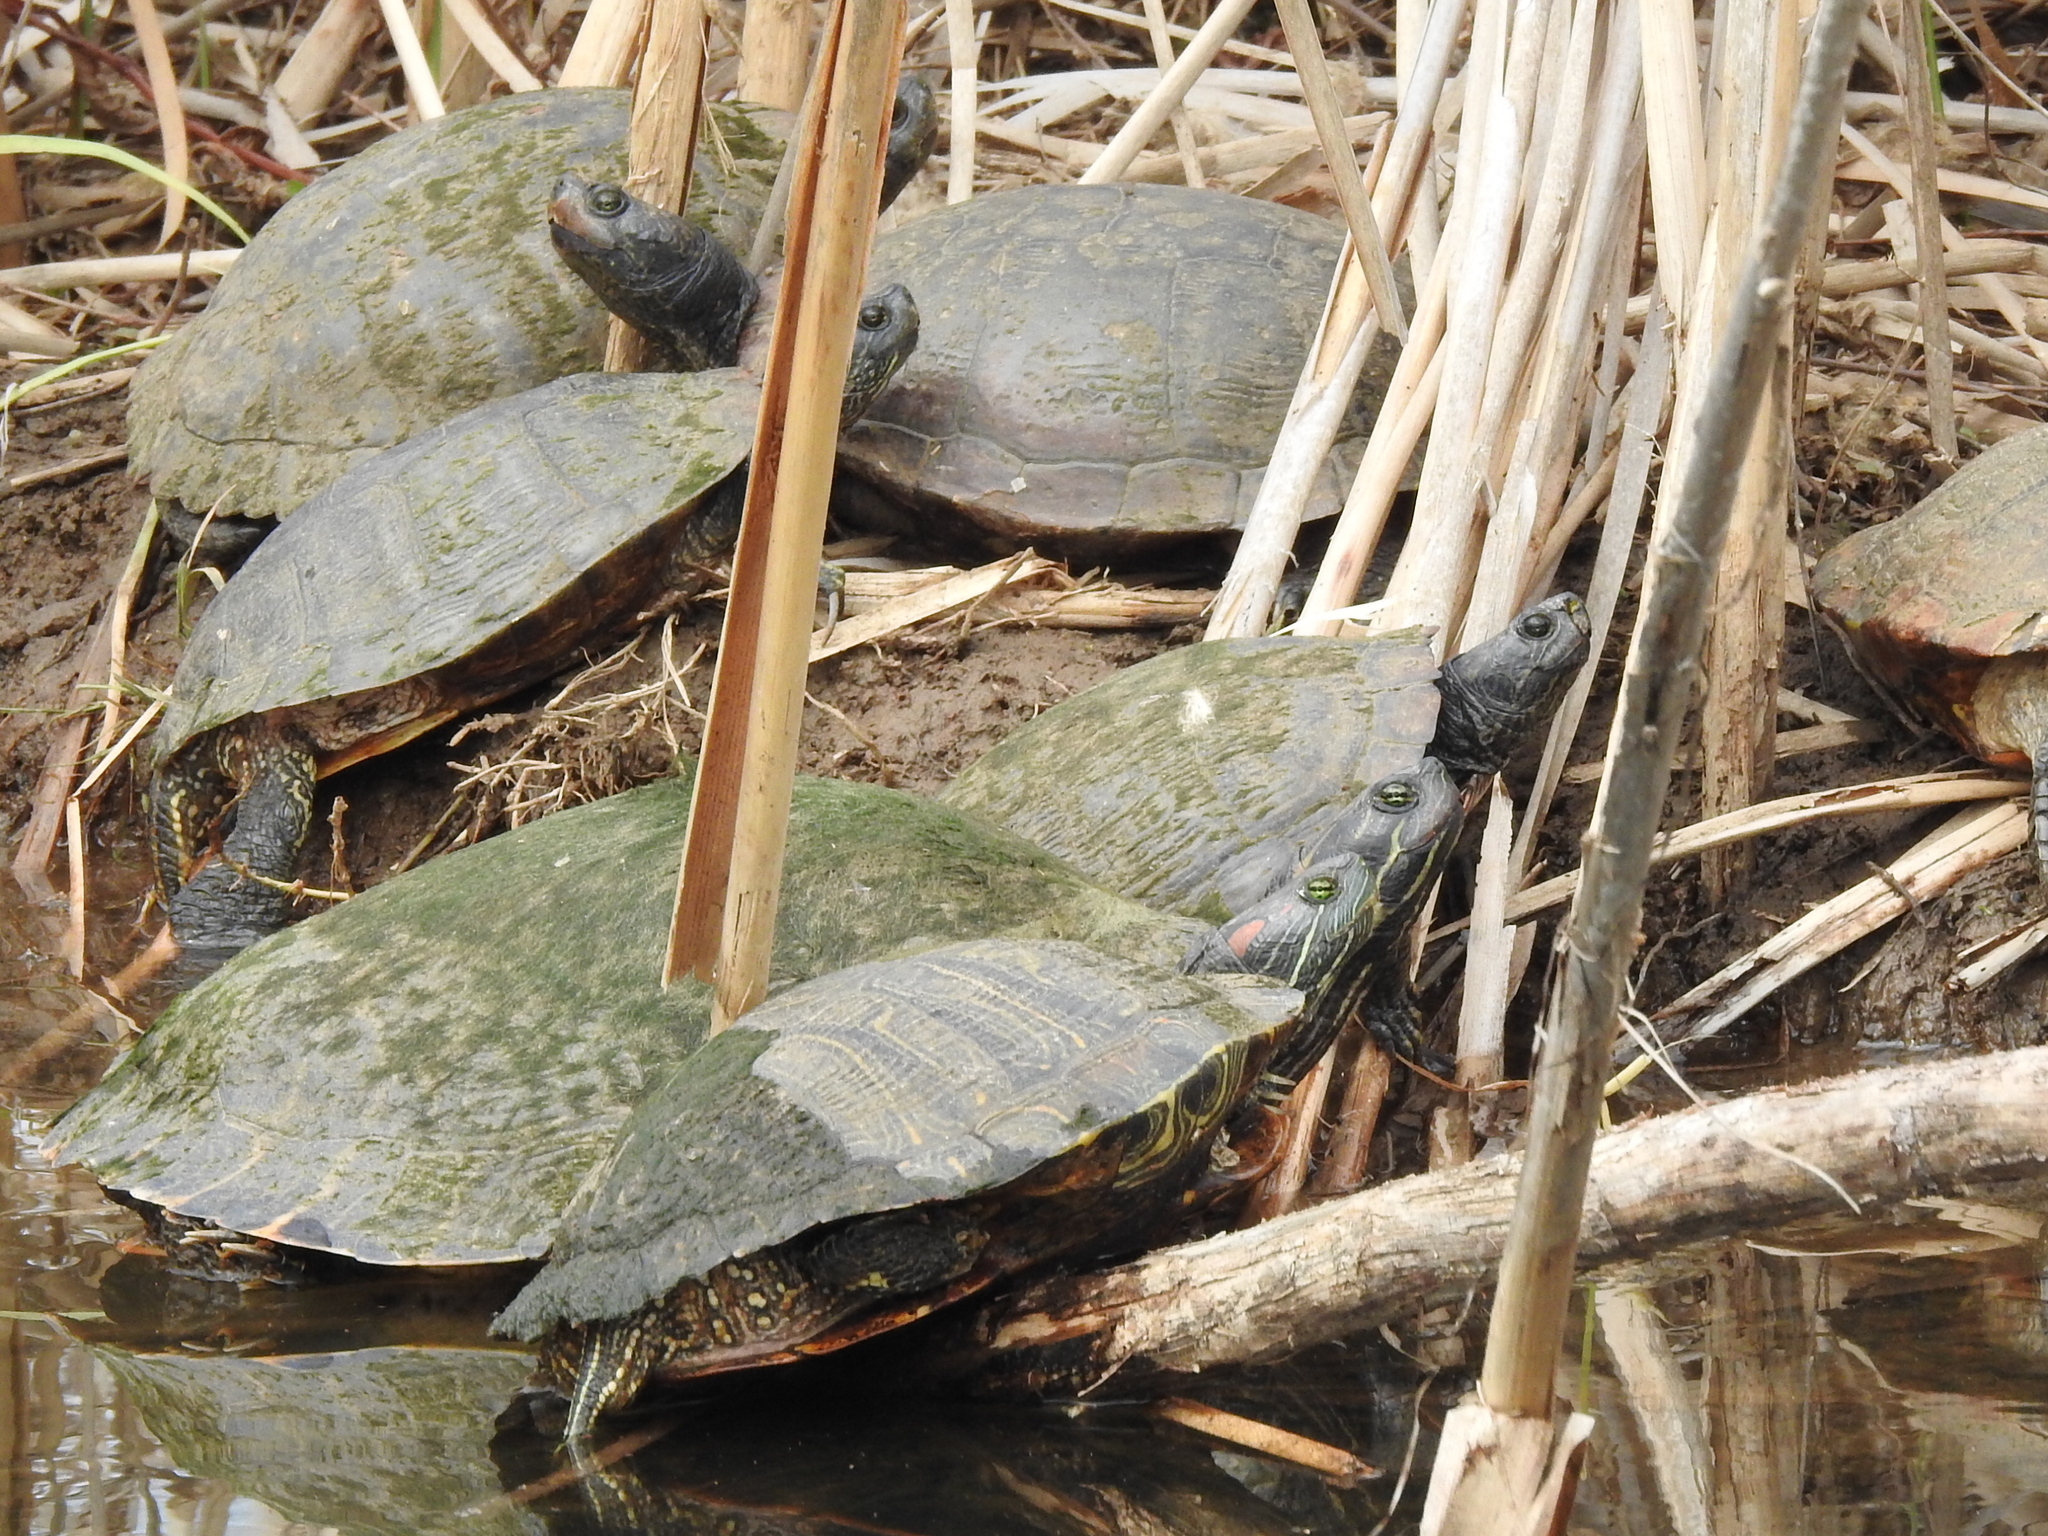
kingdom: Animalia
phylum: Chordata
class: Testudines
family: Emydidae
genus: Trachemys
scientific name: Trachemys scripta
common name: Slider
